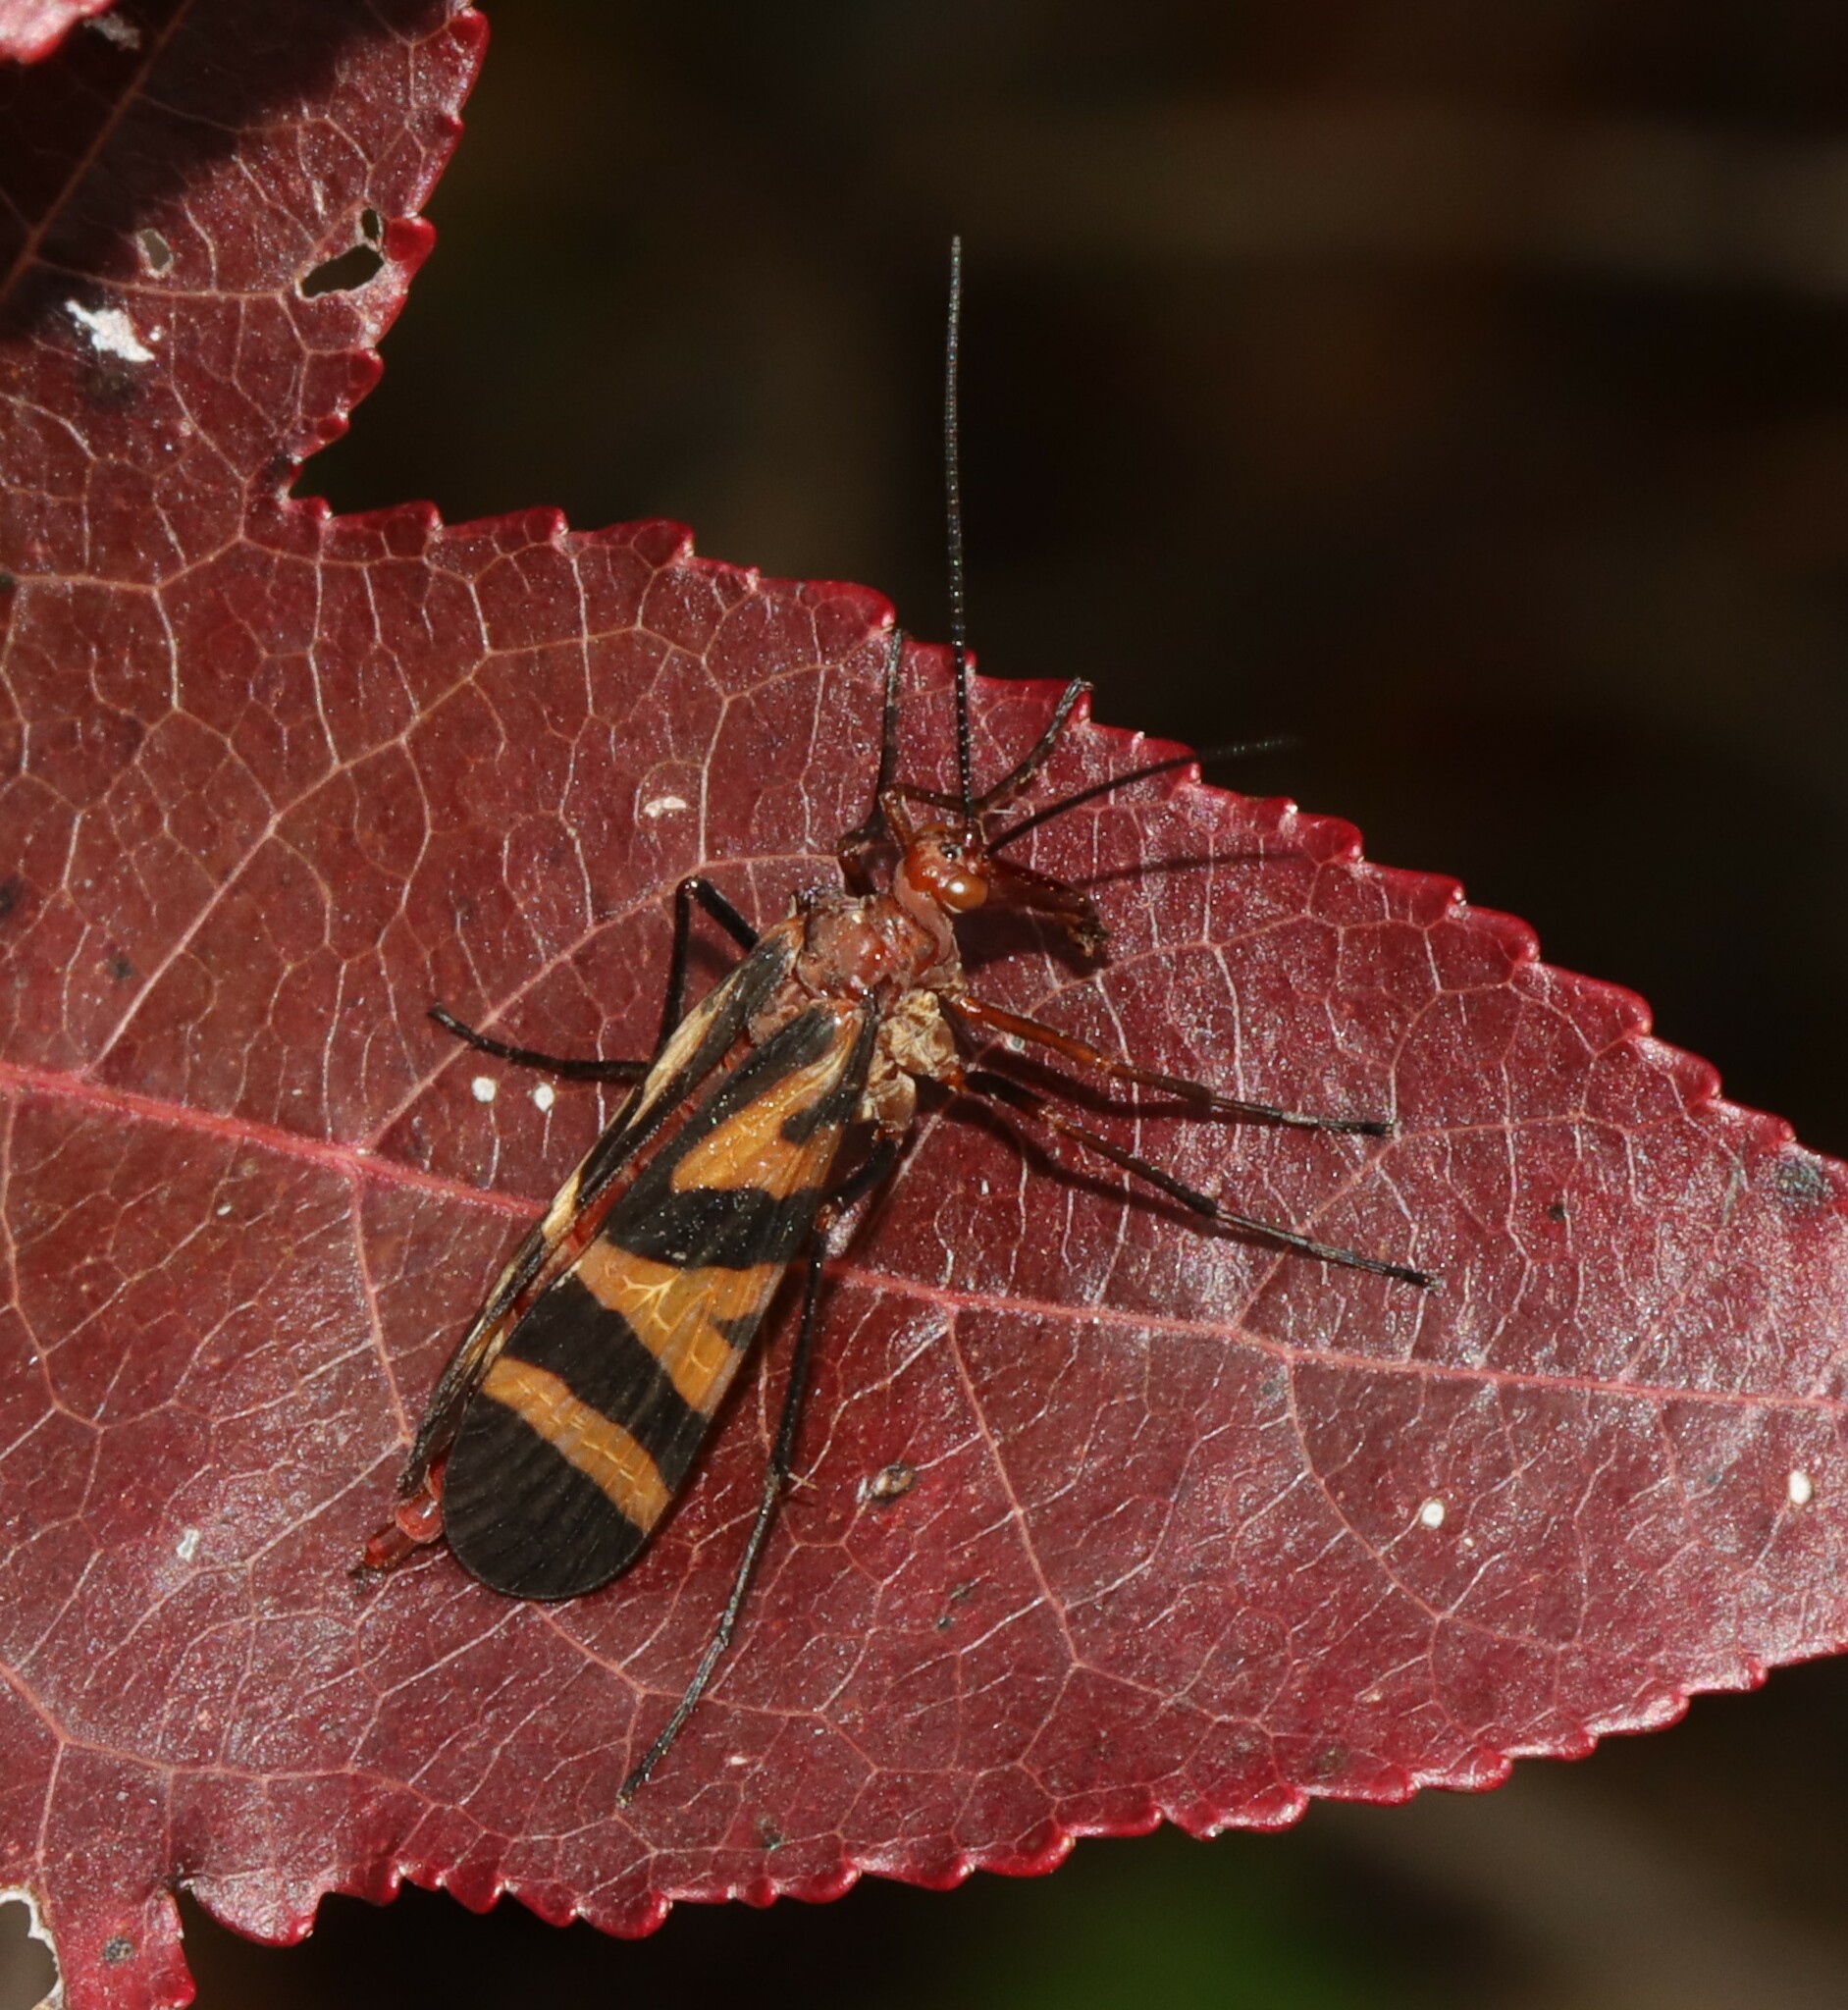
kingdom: Animalia
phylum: Arthropoda
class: Insecta
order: Mecoptera
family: Panorpidae
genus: Panorpa
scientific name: Panorpa nuptialis
